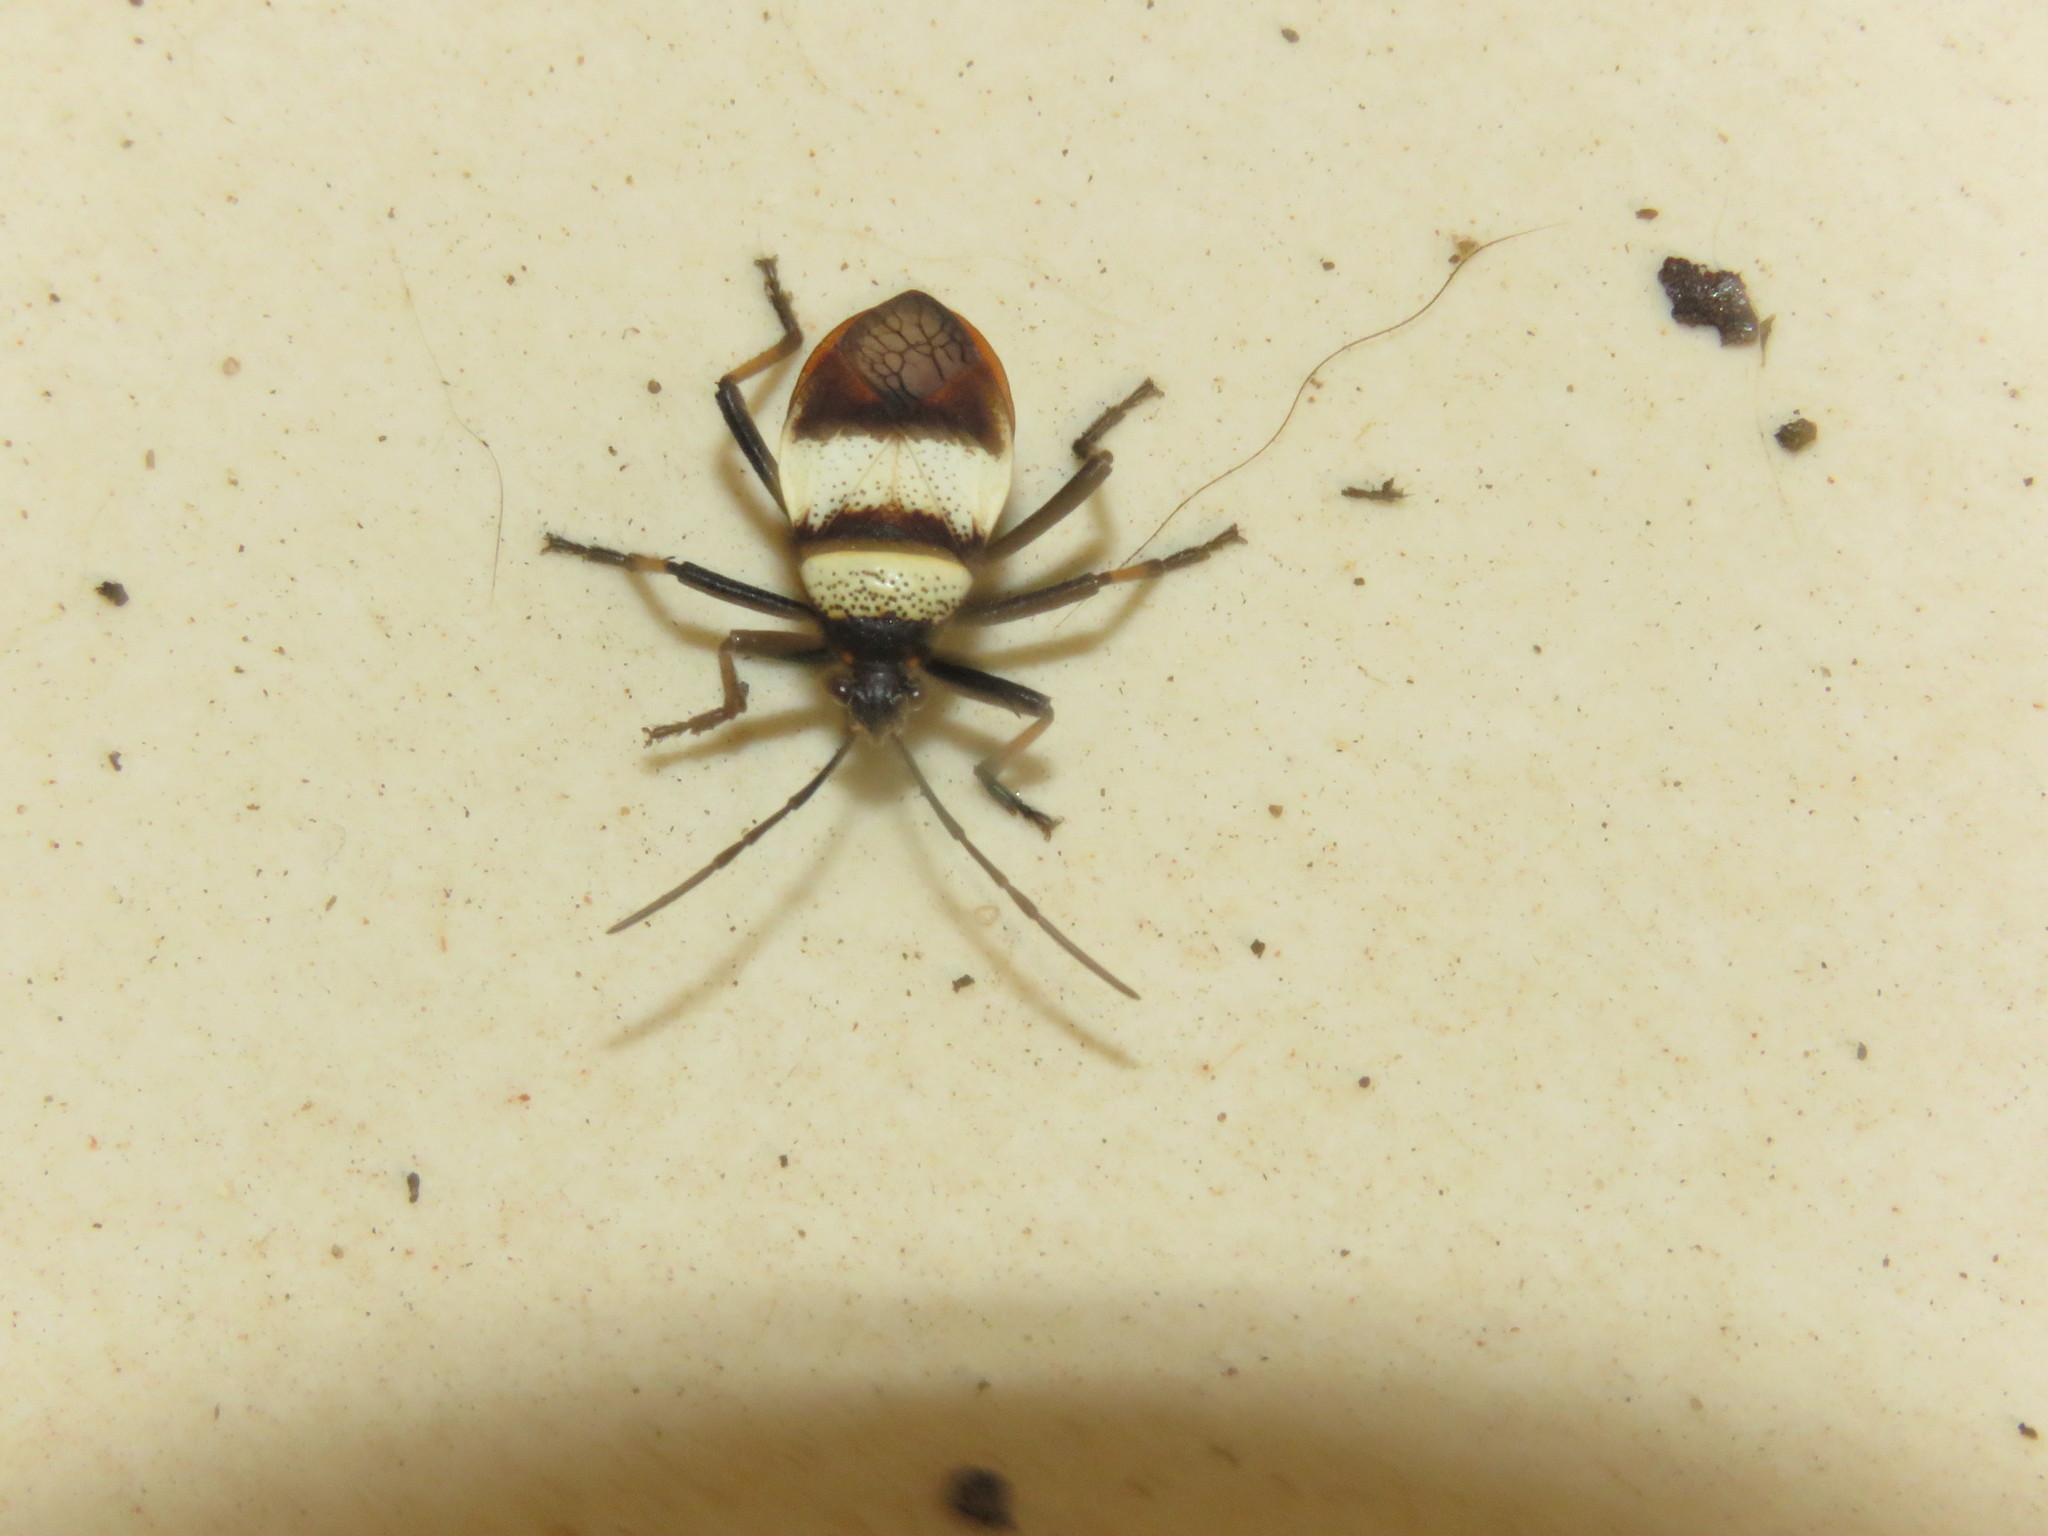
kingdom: Animalia
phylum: Arthropoda
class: Insecta
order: Hemiptera
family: Largidae
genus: Largus
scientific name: Largus balteatus
